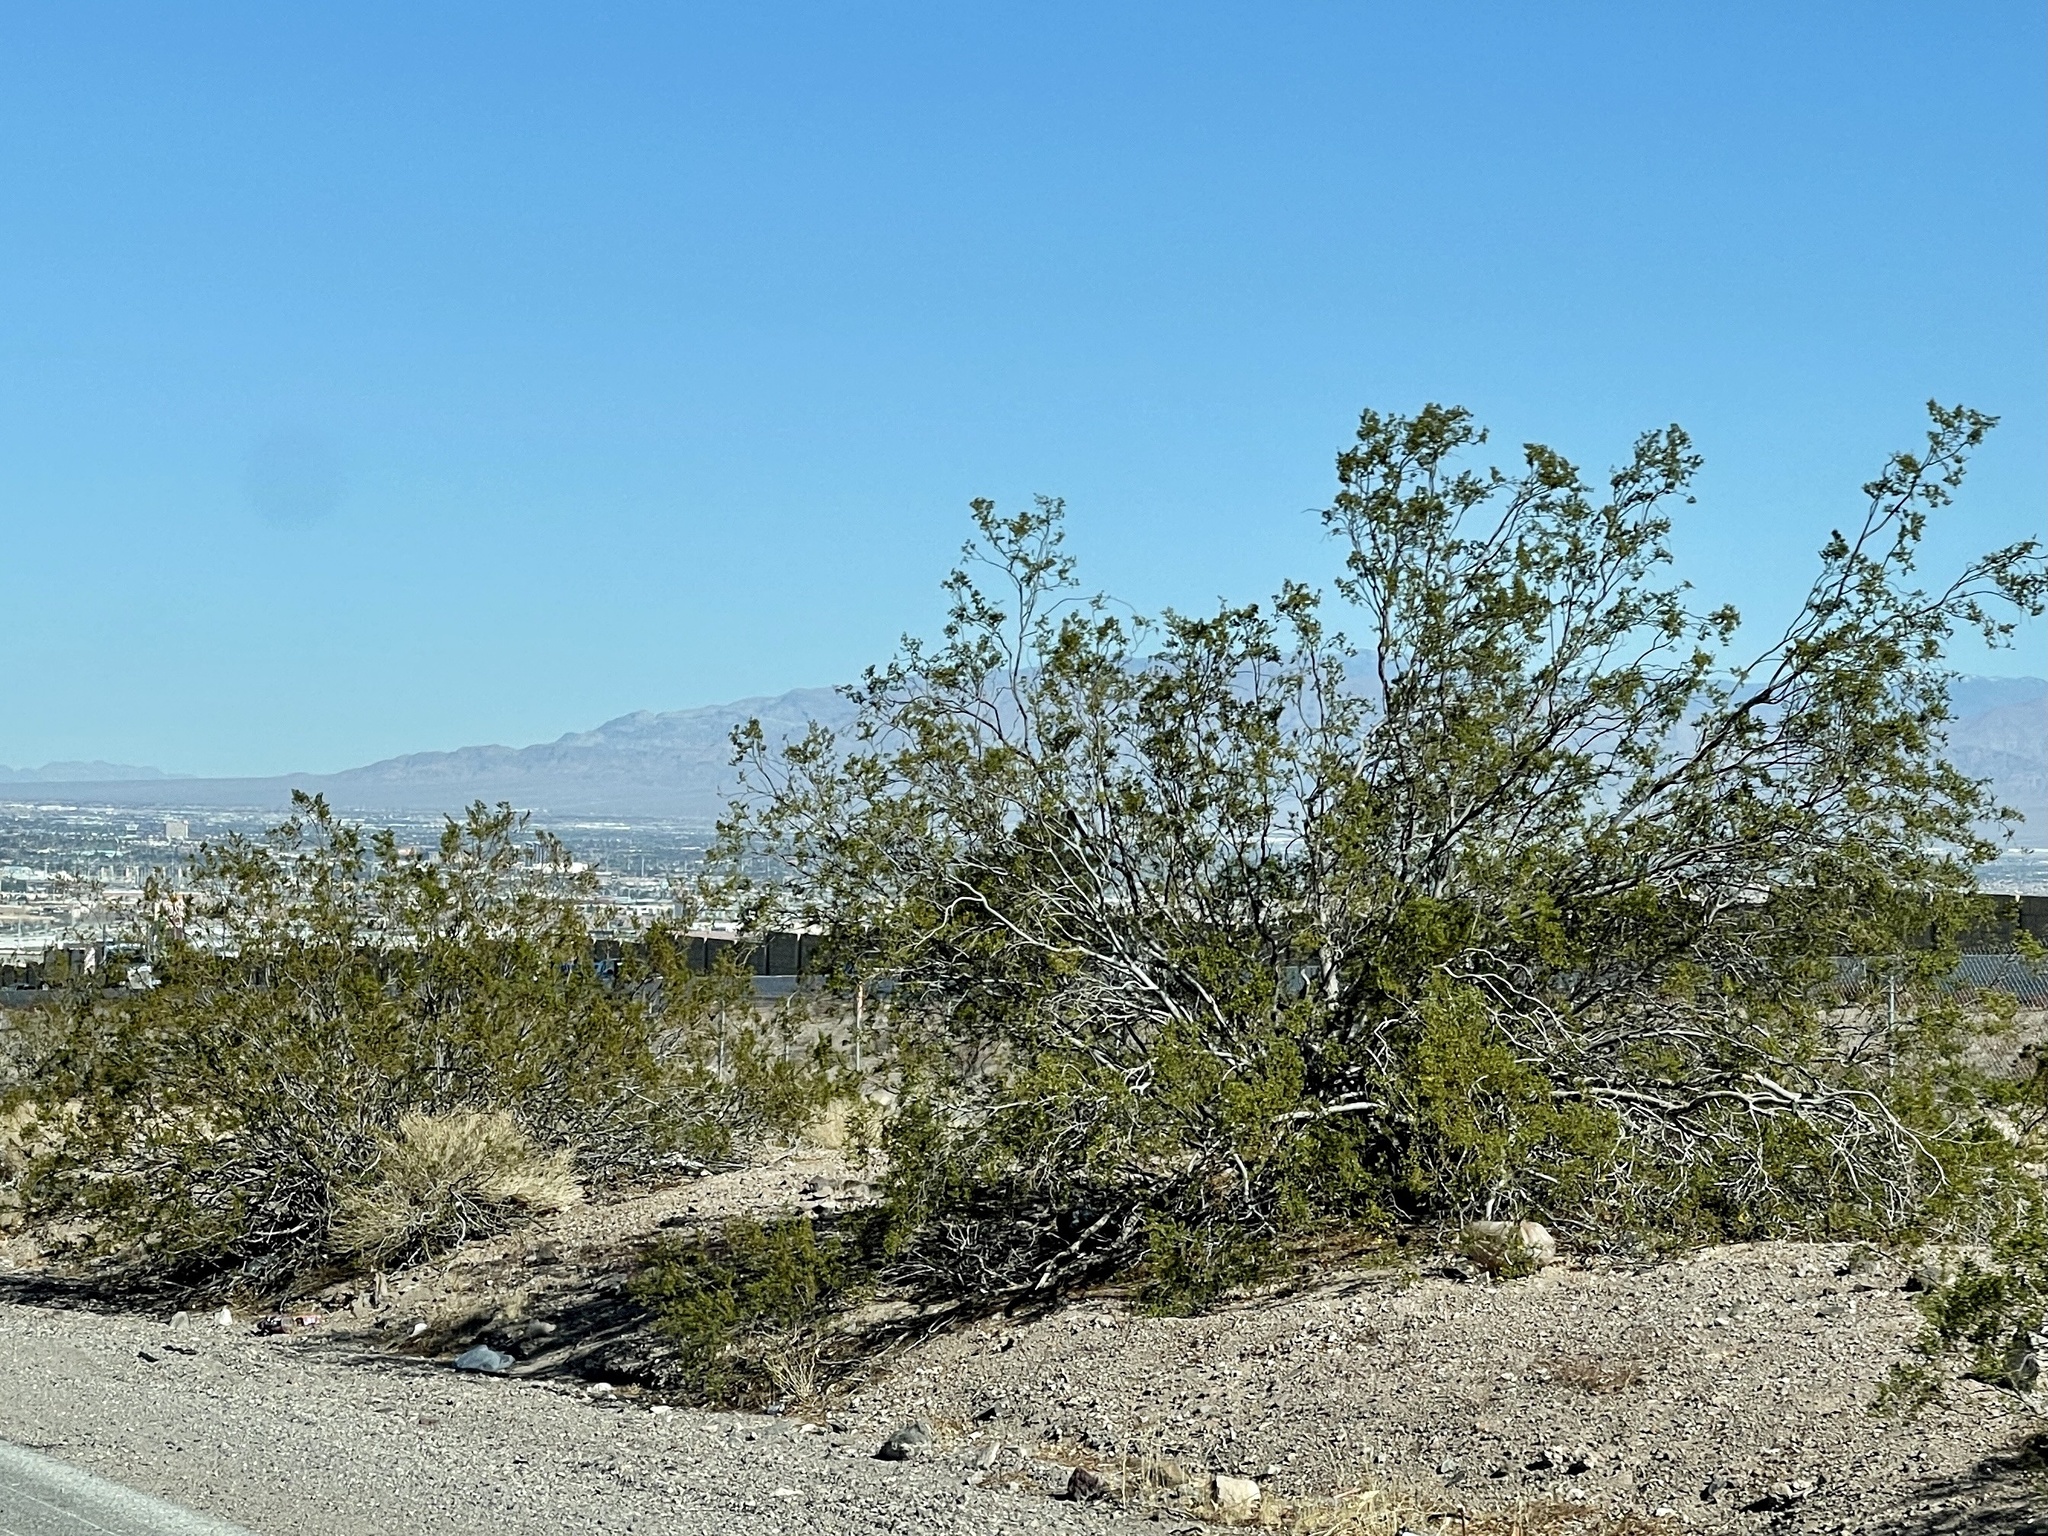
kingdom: Plantae
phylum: Tracheophyta
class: Magnoliopsida
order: Zygophyllales
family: Zygophyllaceae
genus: Larrea
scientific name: Larrea tridentata
